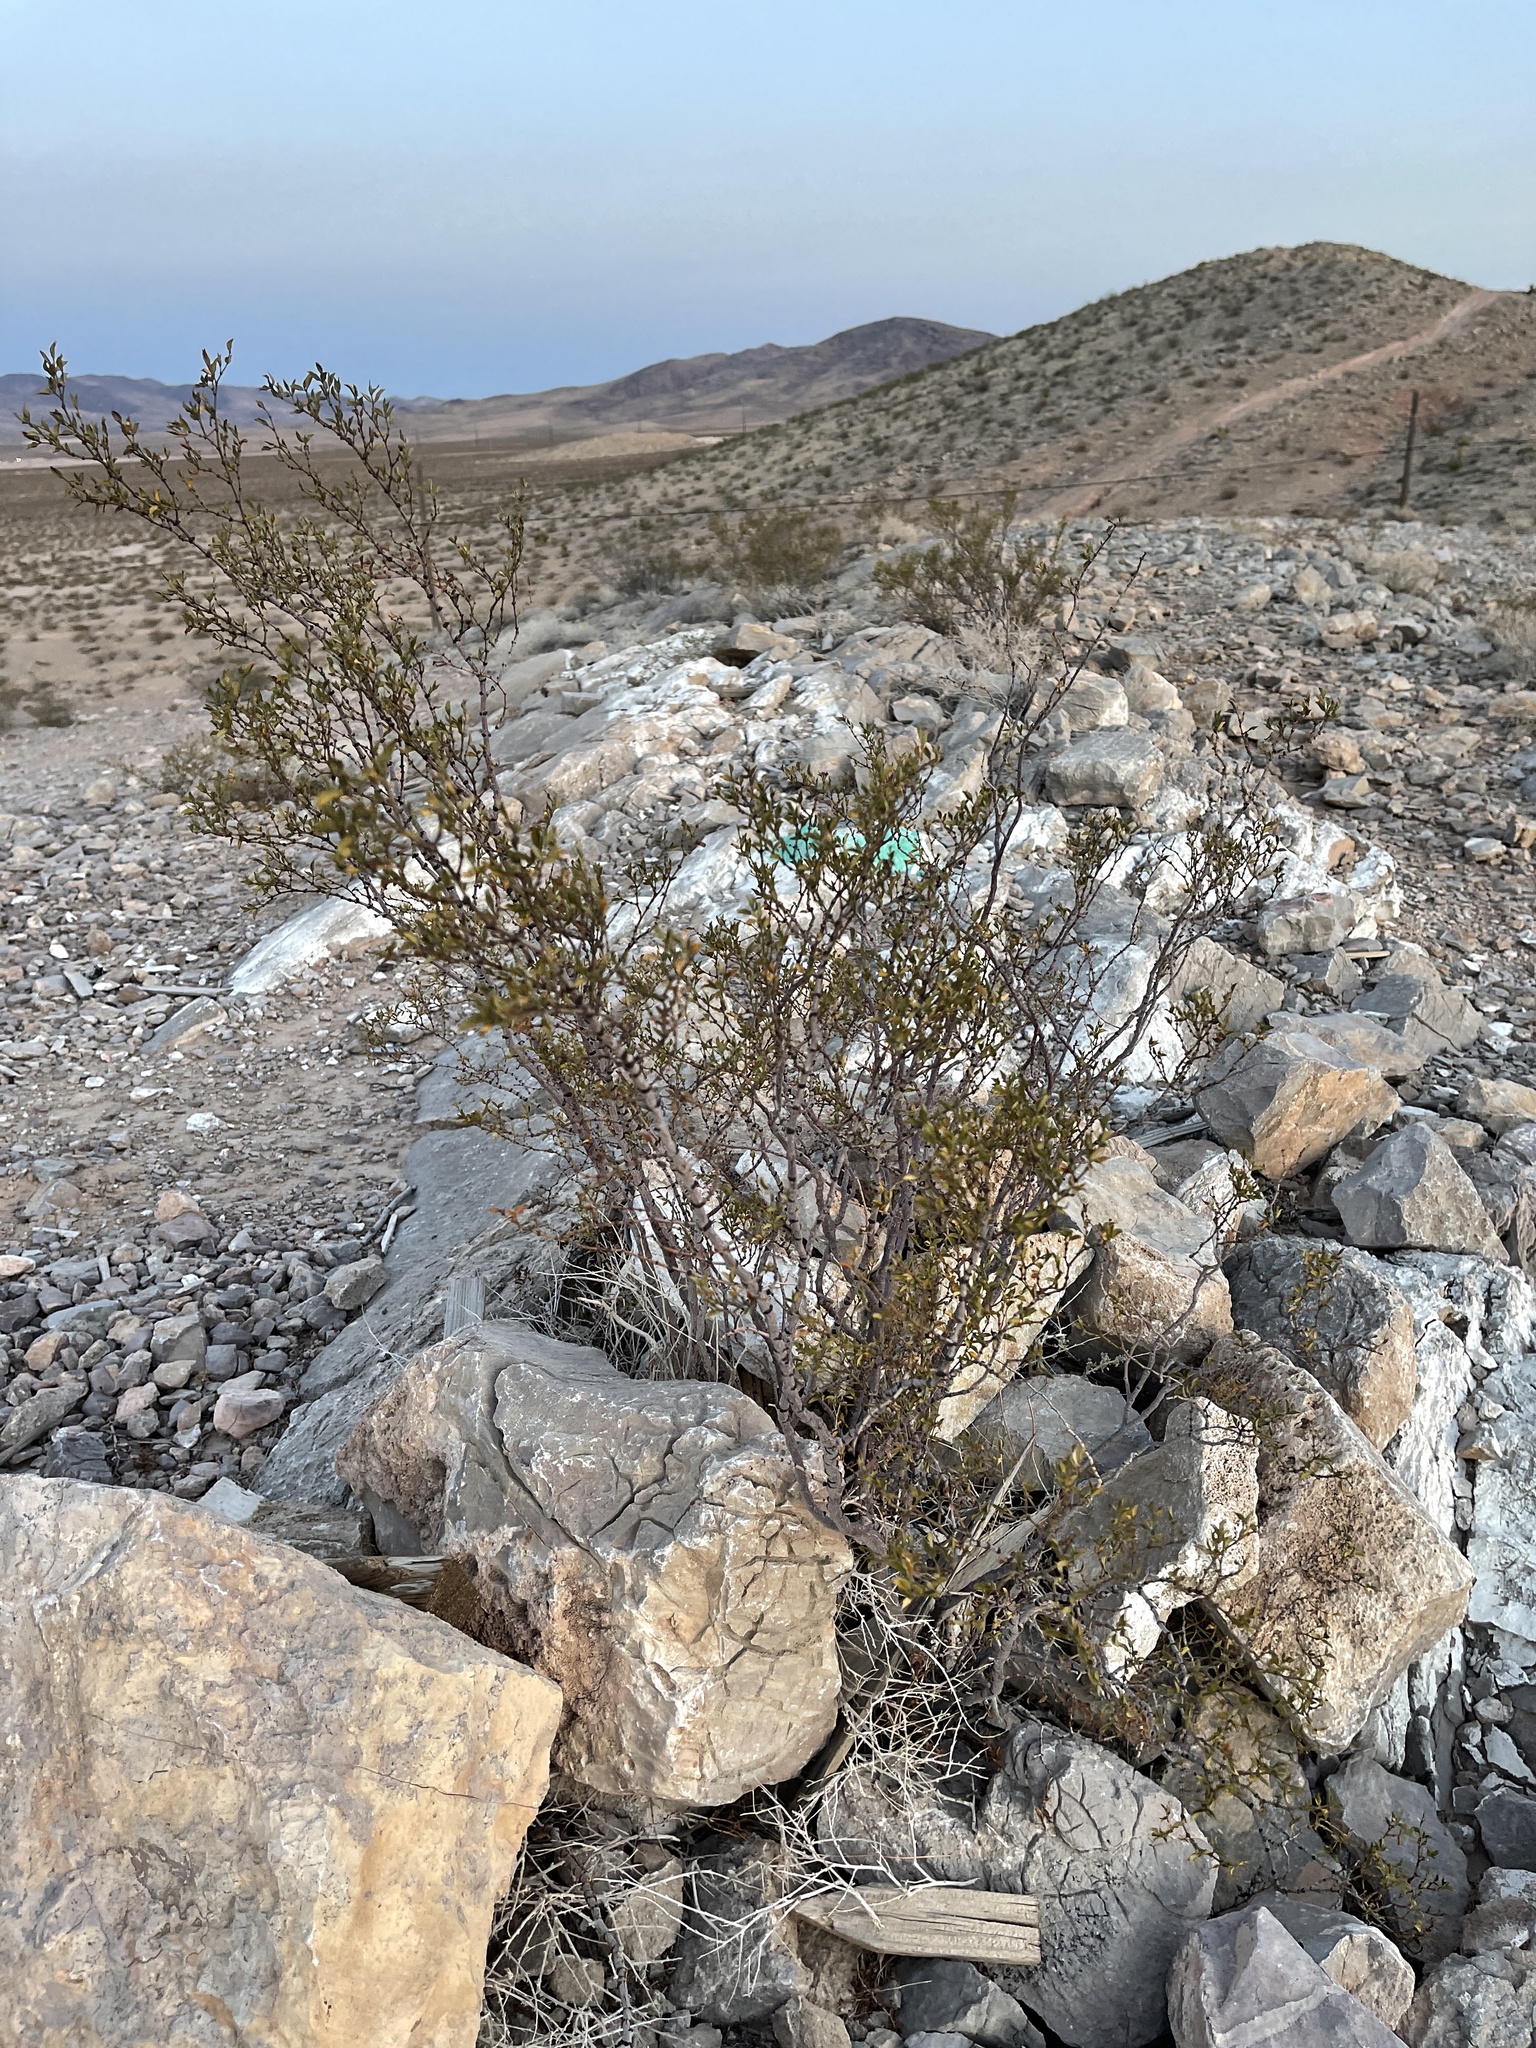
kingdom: Plantae
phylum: Tracheophyta
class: Magnoliopsida
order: Zygophyllales
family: Zygophyllaceae
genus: Larrea
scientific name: Larrea tridentata
